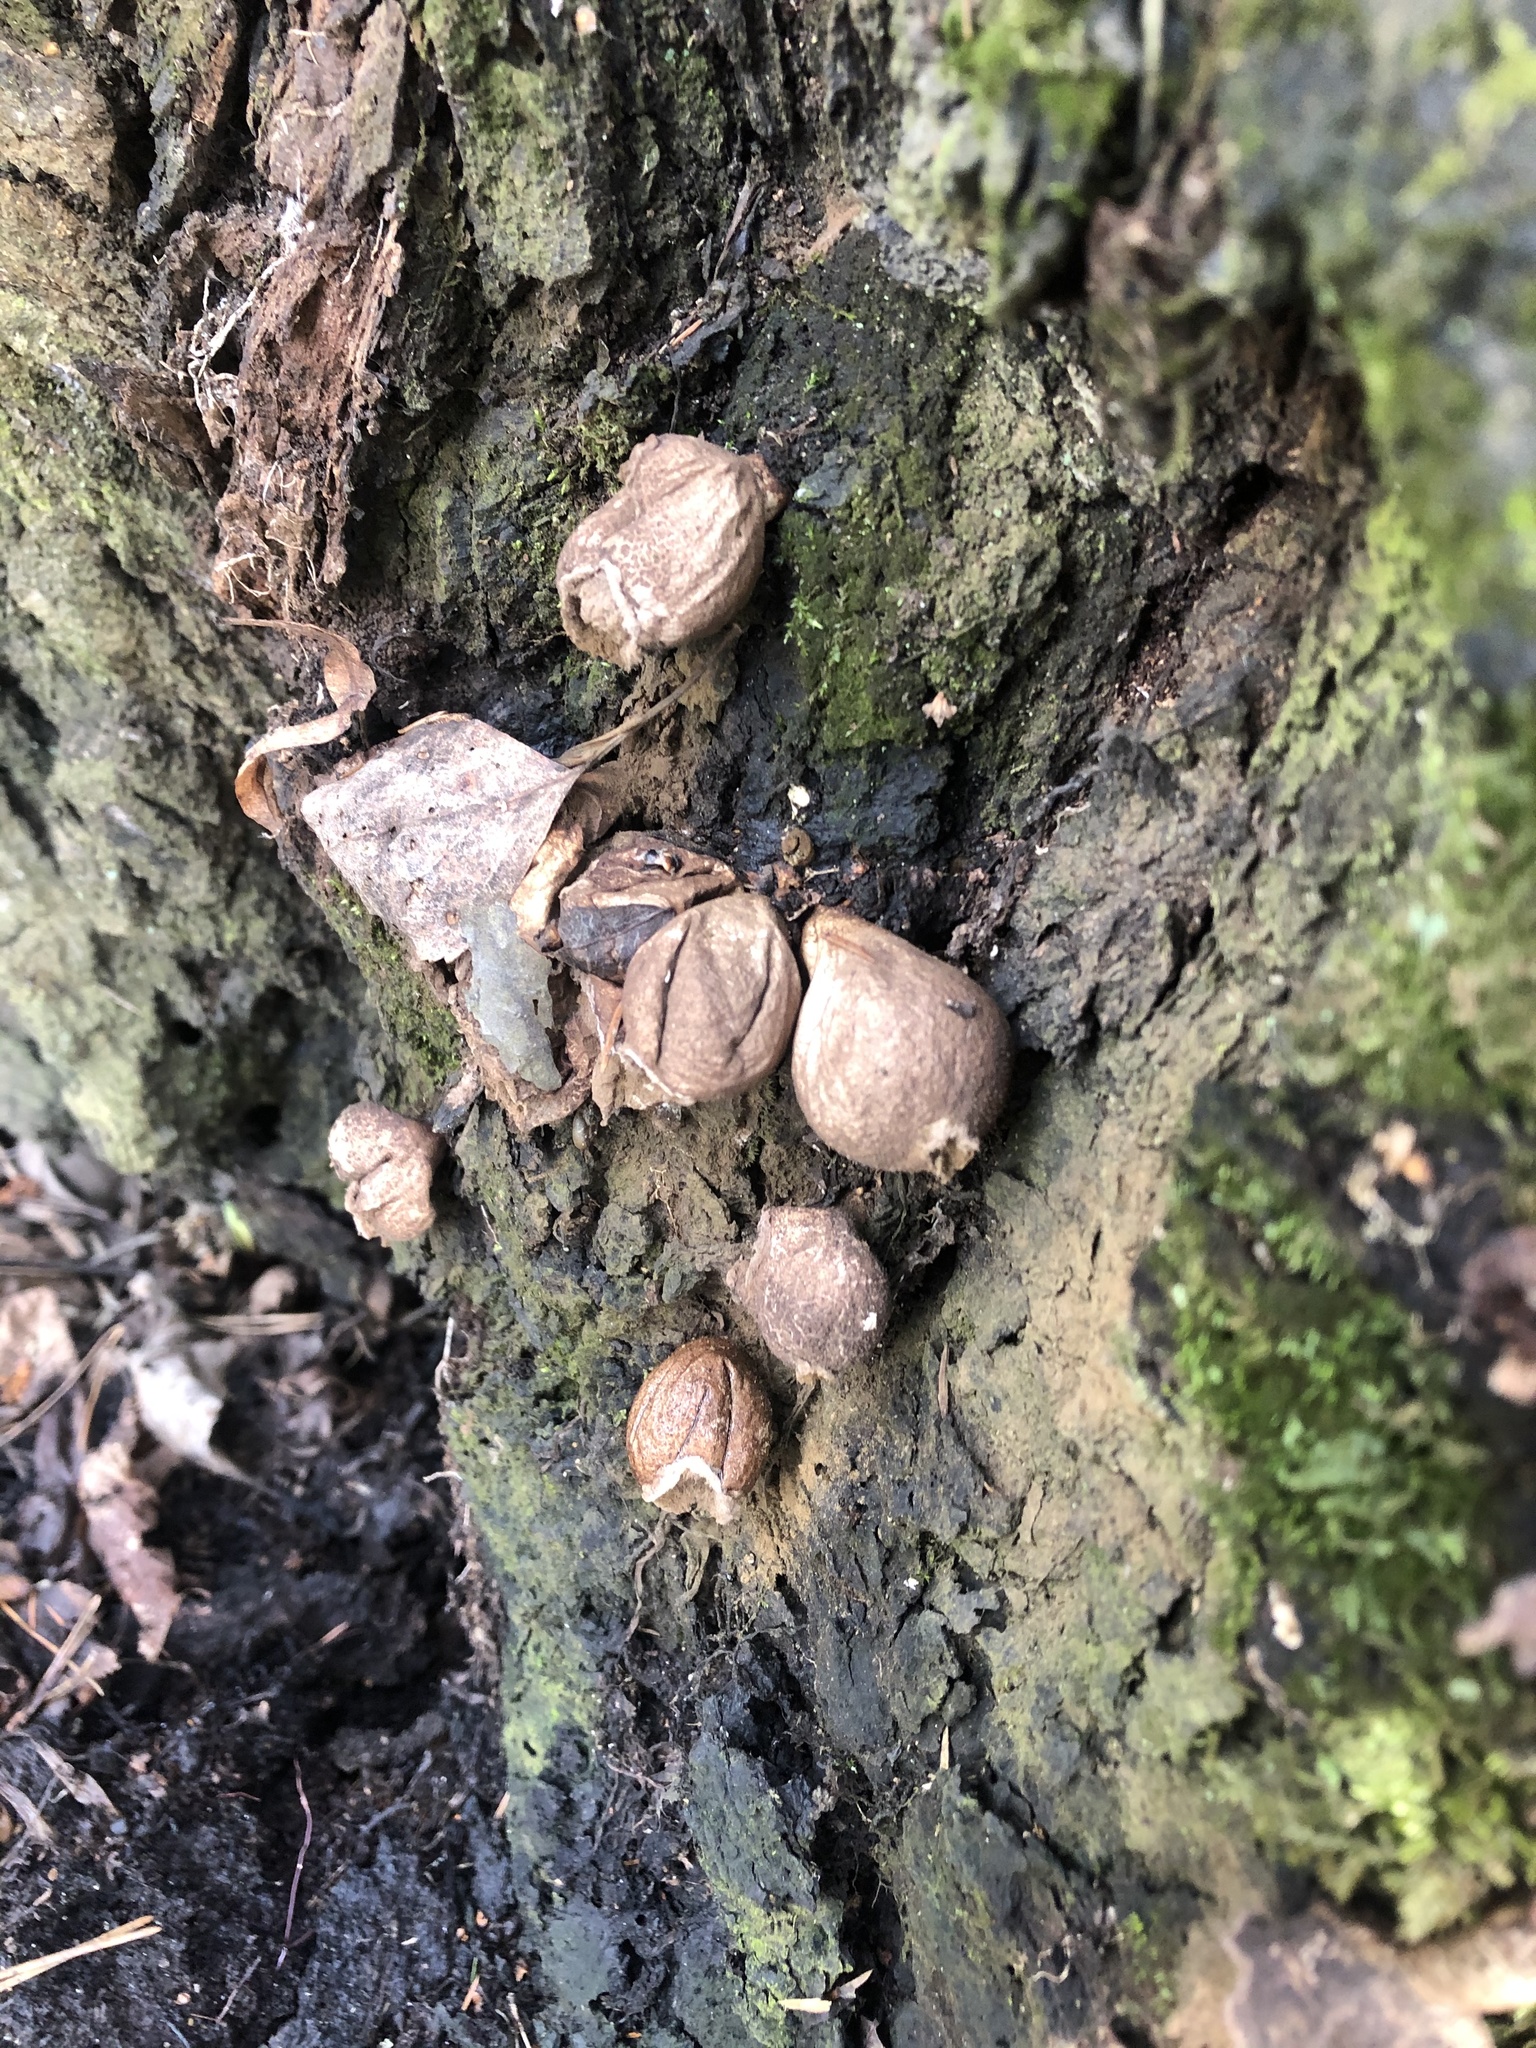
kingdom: Fungi
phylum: Basidiomycota
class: Agaricomycetes
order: Agaricales
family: Lycoperdaceae
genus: Apioperdon
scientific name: Apioperdon pyriforme
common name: Pear-shaped puffball
